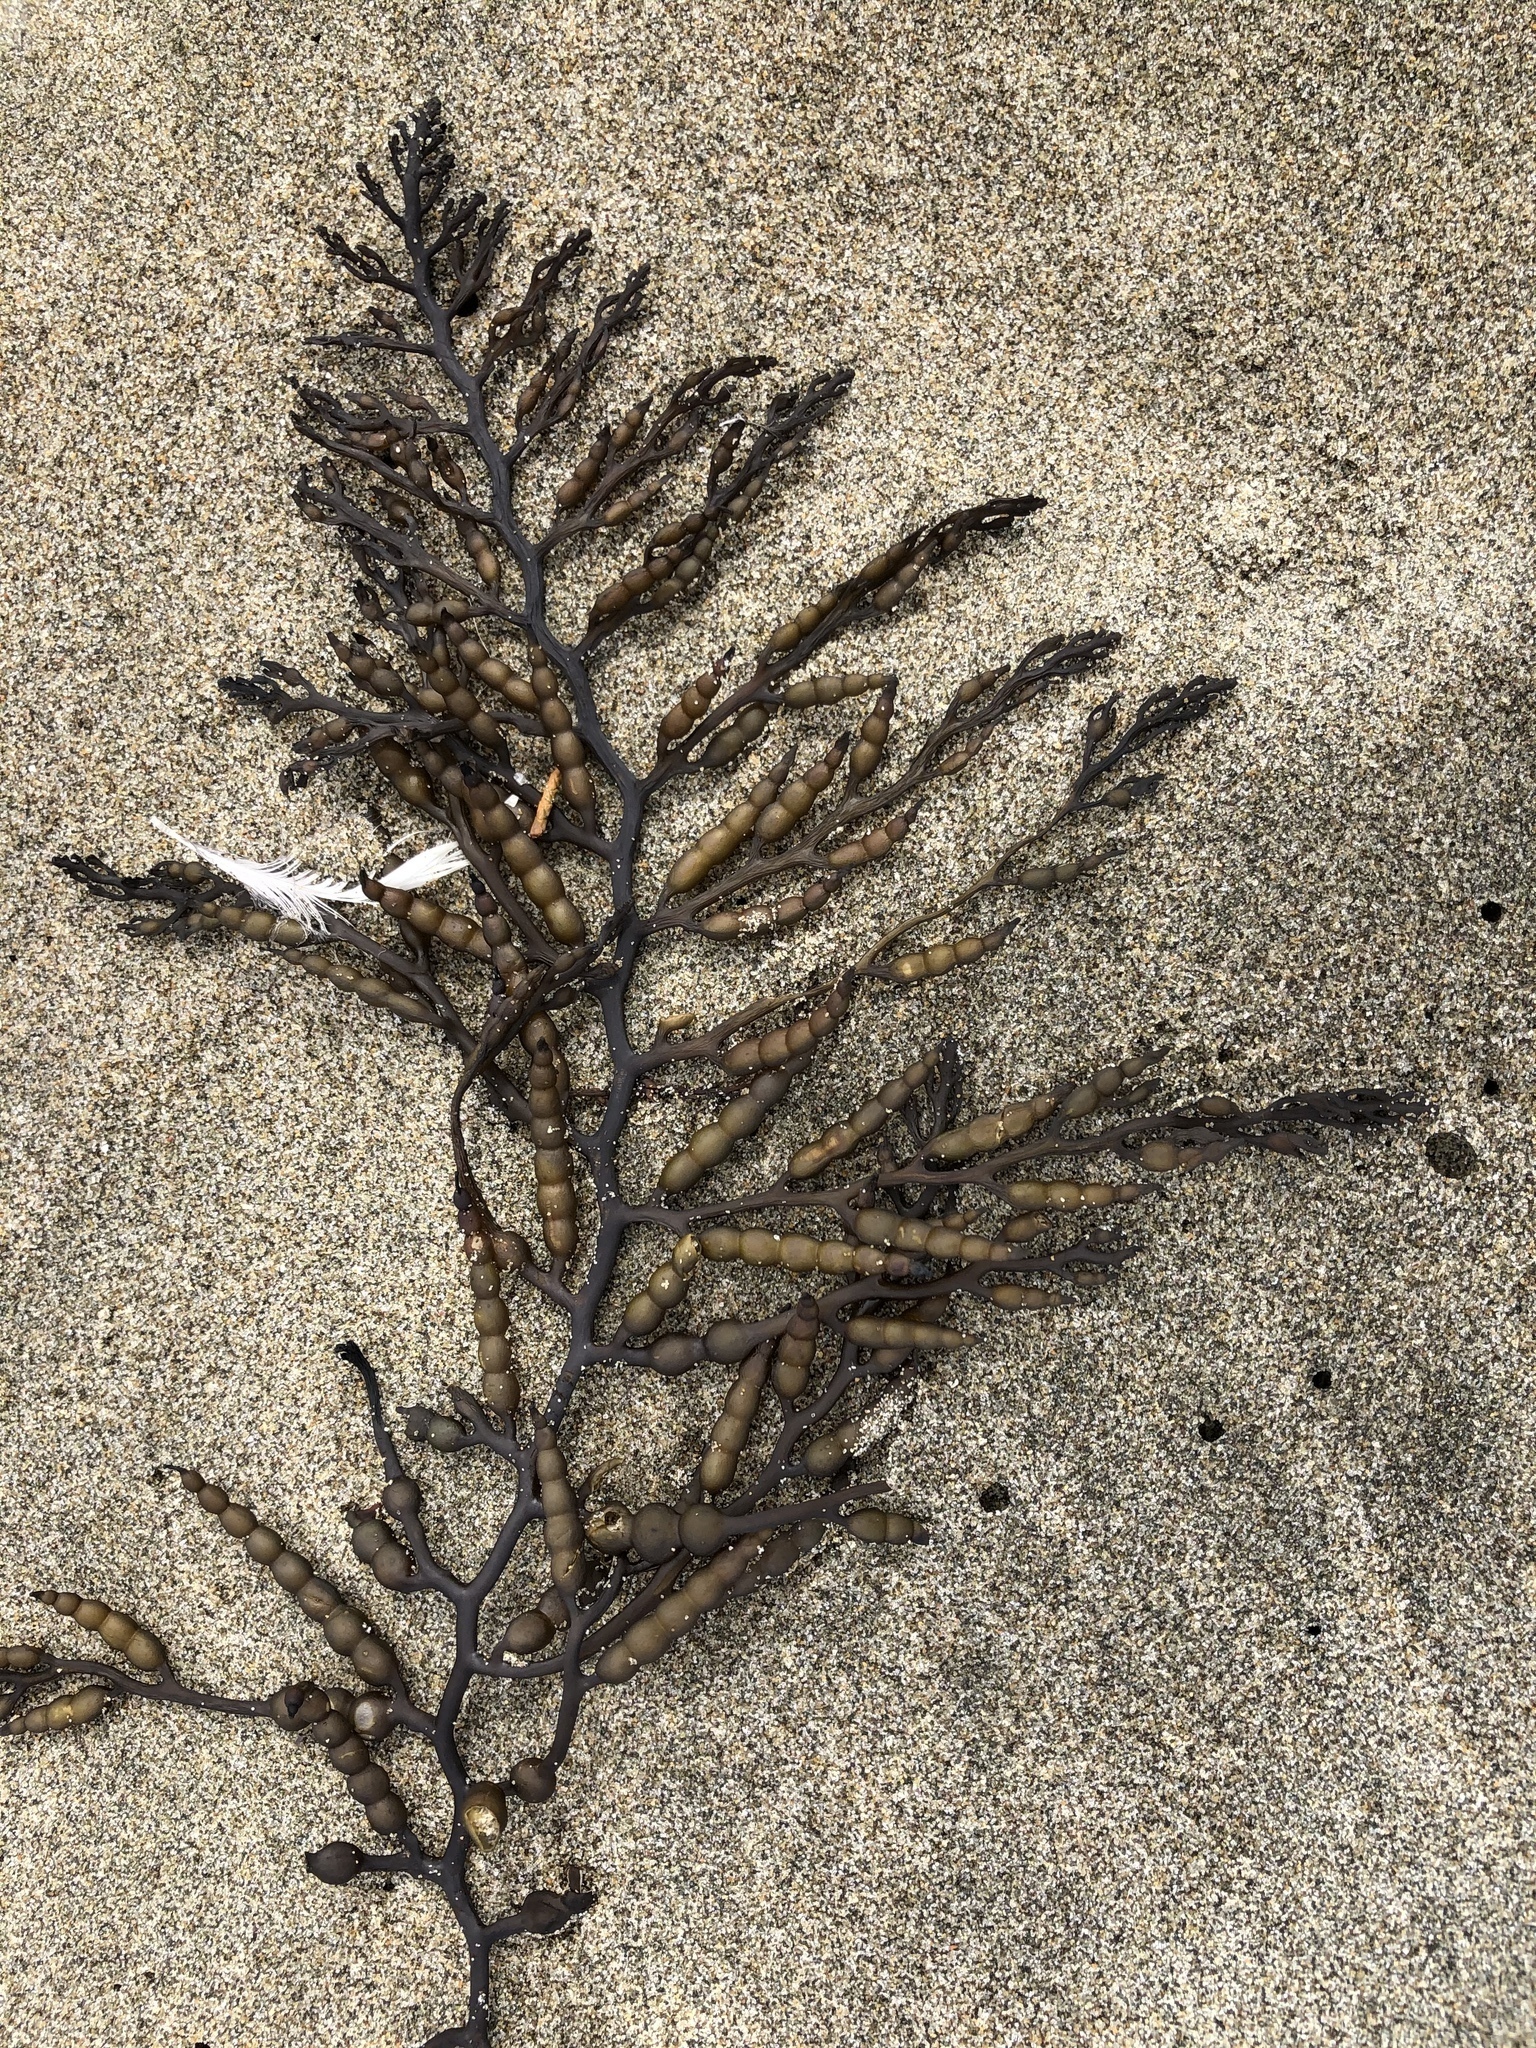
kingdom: Chromista
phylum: Ochrophyta
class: Phaeophyceae
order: Fucales
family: Sargassaceae
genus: Stephanocystis
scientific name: Stephanocystis
